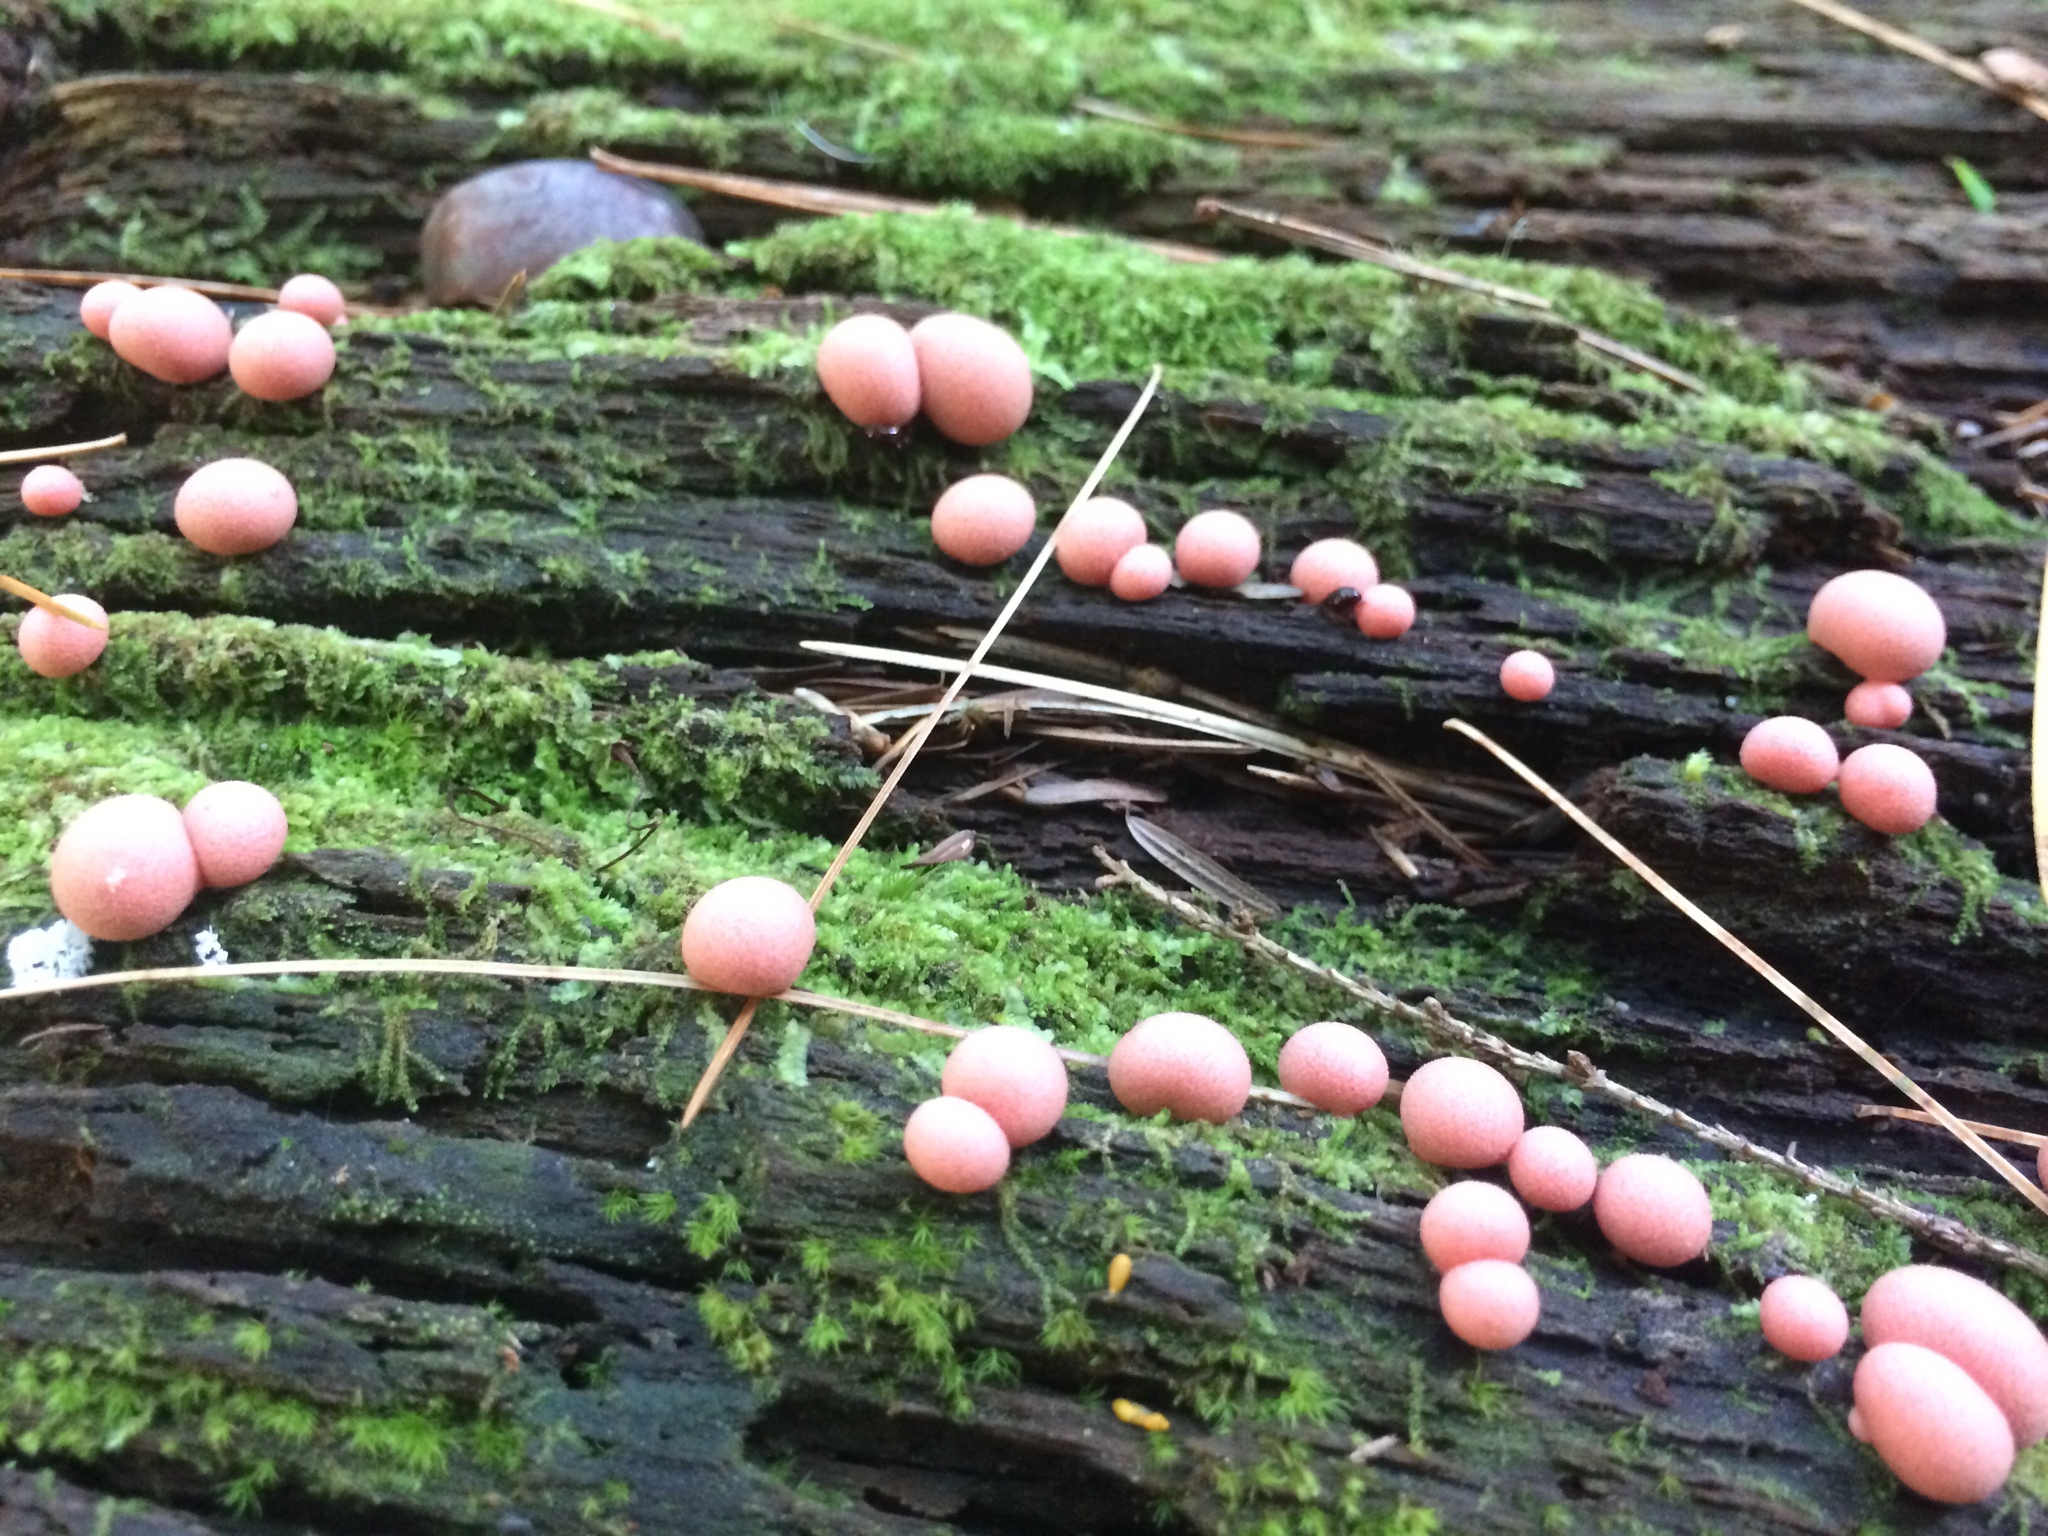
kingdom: Protozoa
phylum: Mycetozoa
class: Myxomycetes
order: Cribrariales
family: Tubiferaceae
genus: Lycogala
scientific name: Lycogala epidendrum
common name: Wolf's milk
